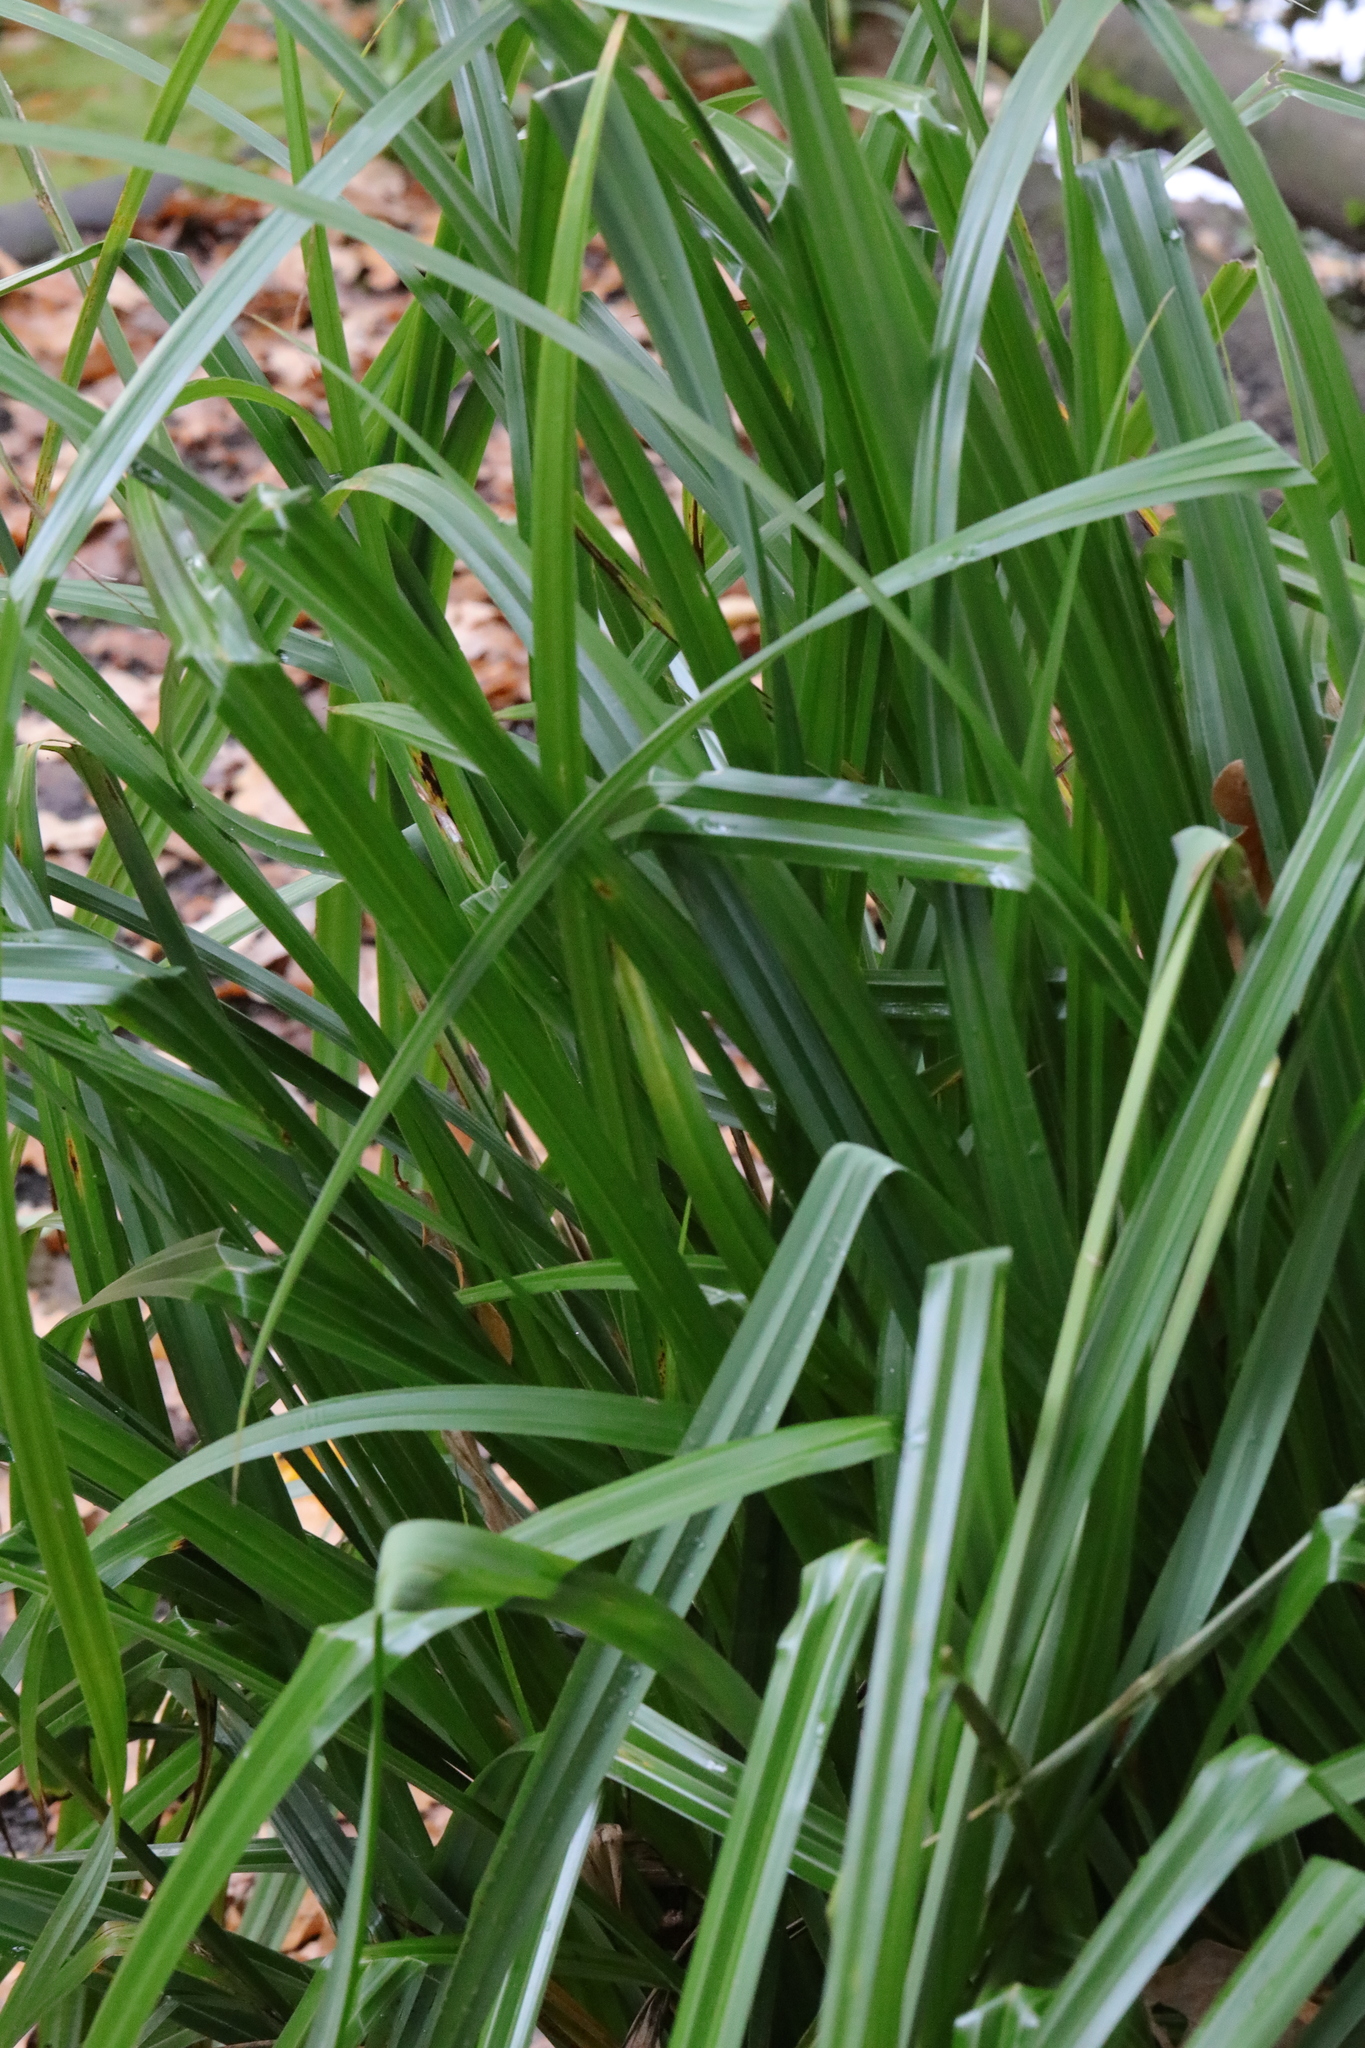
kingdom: Plantae
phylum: Tracheophyta
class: Liliopsida
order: Poales
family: Cyperaceae
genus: Carex
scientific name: Carex pendula
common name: Pendulous sedge
